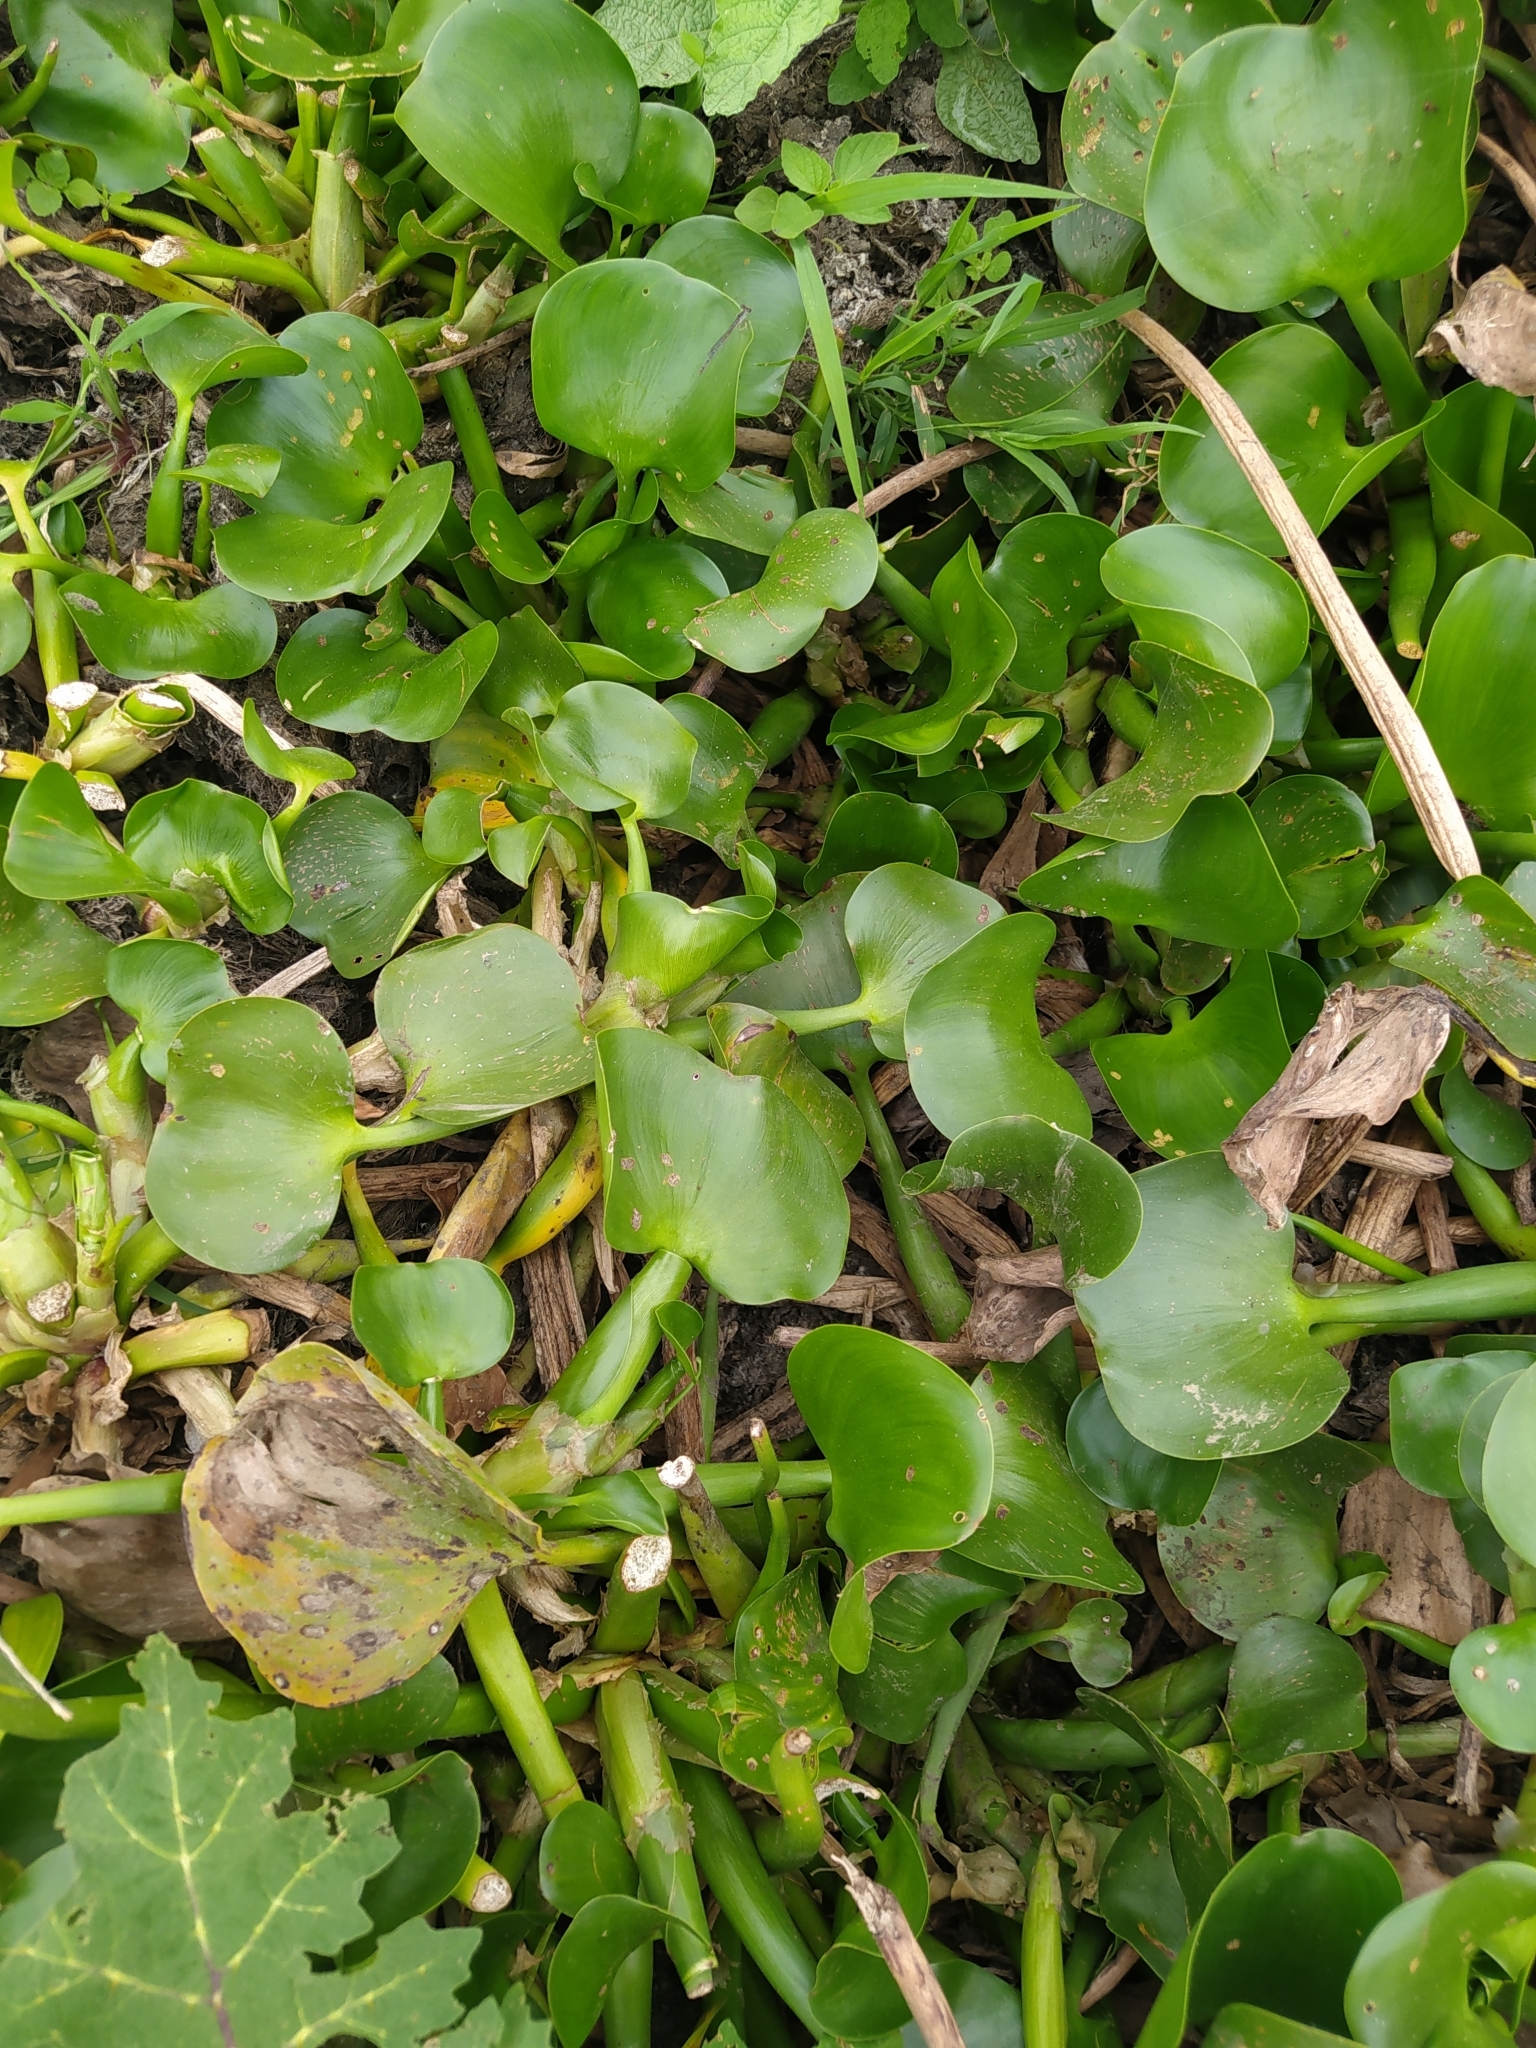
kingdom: Plantae
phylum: Tracheophyta
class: Liliopsida
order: Commelinales
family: Pontederiaceae
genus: Pontederia
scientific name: Pontederia crassipes
